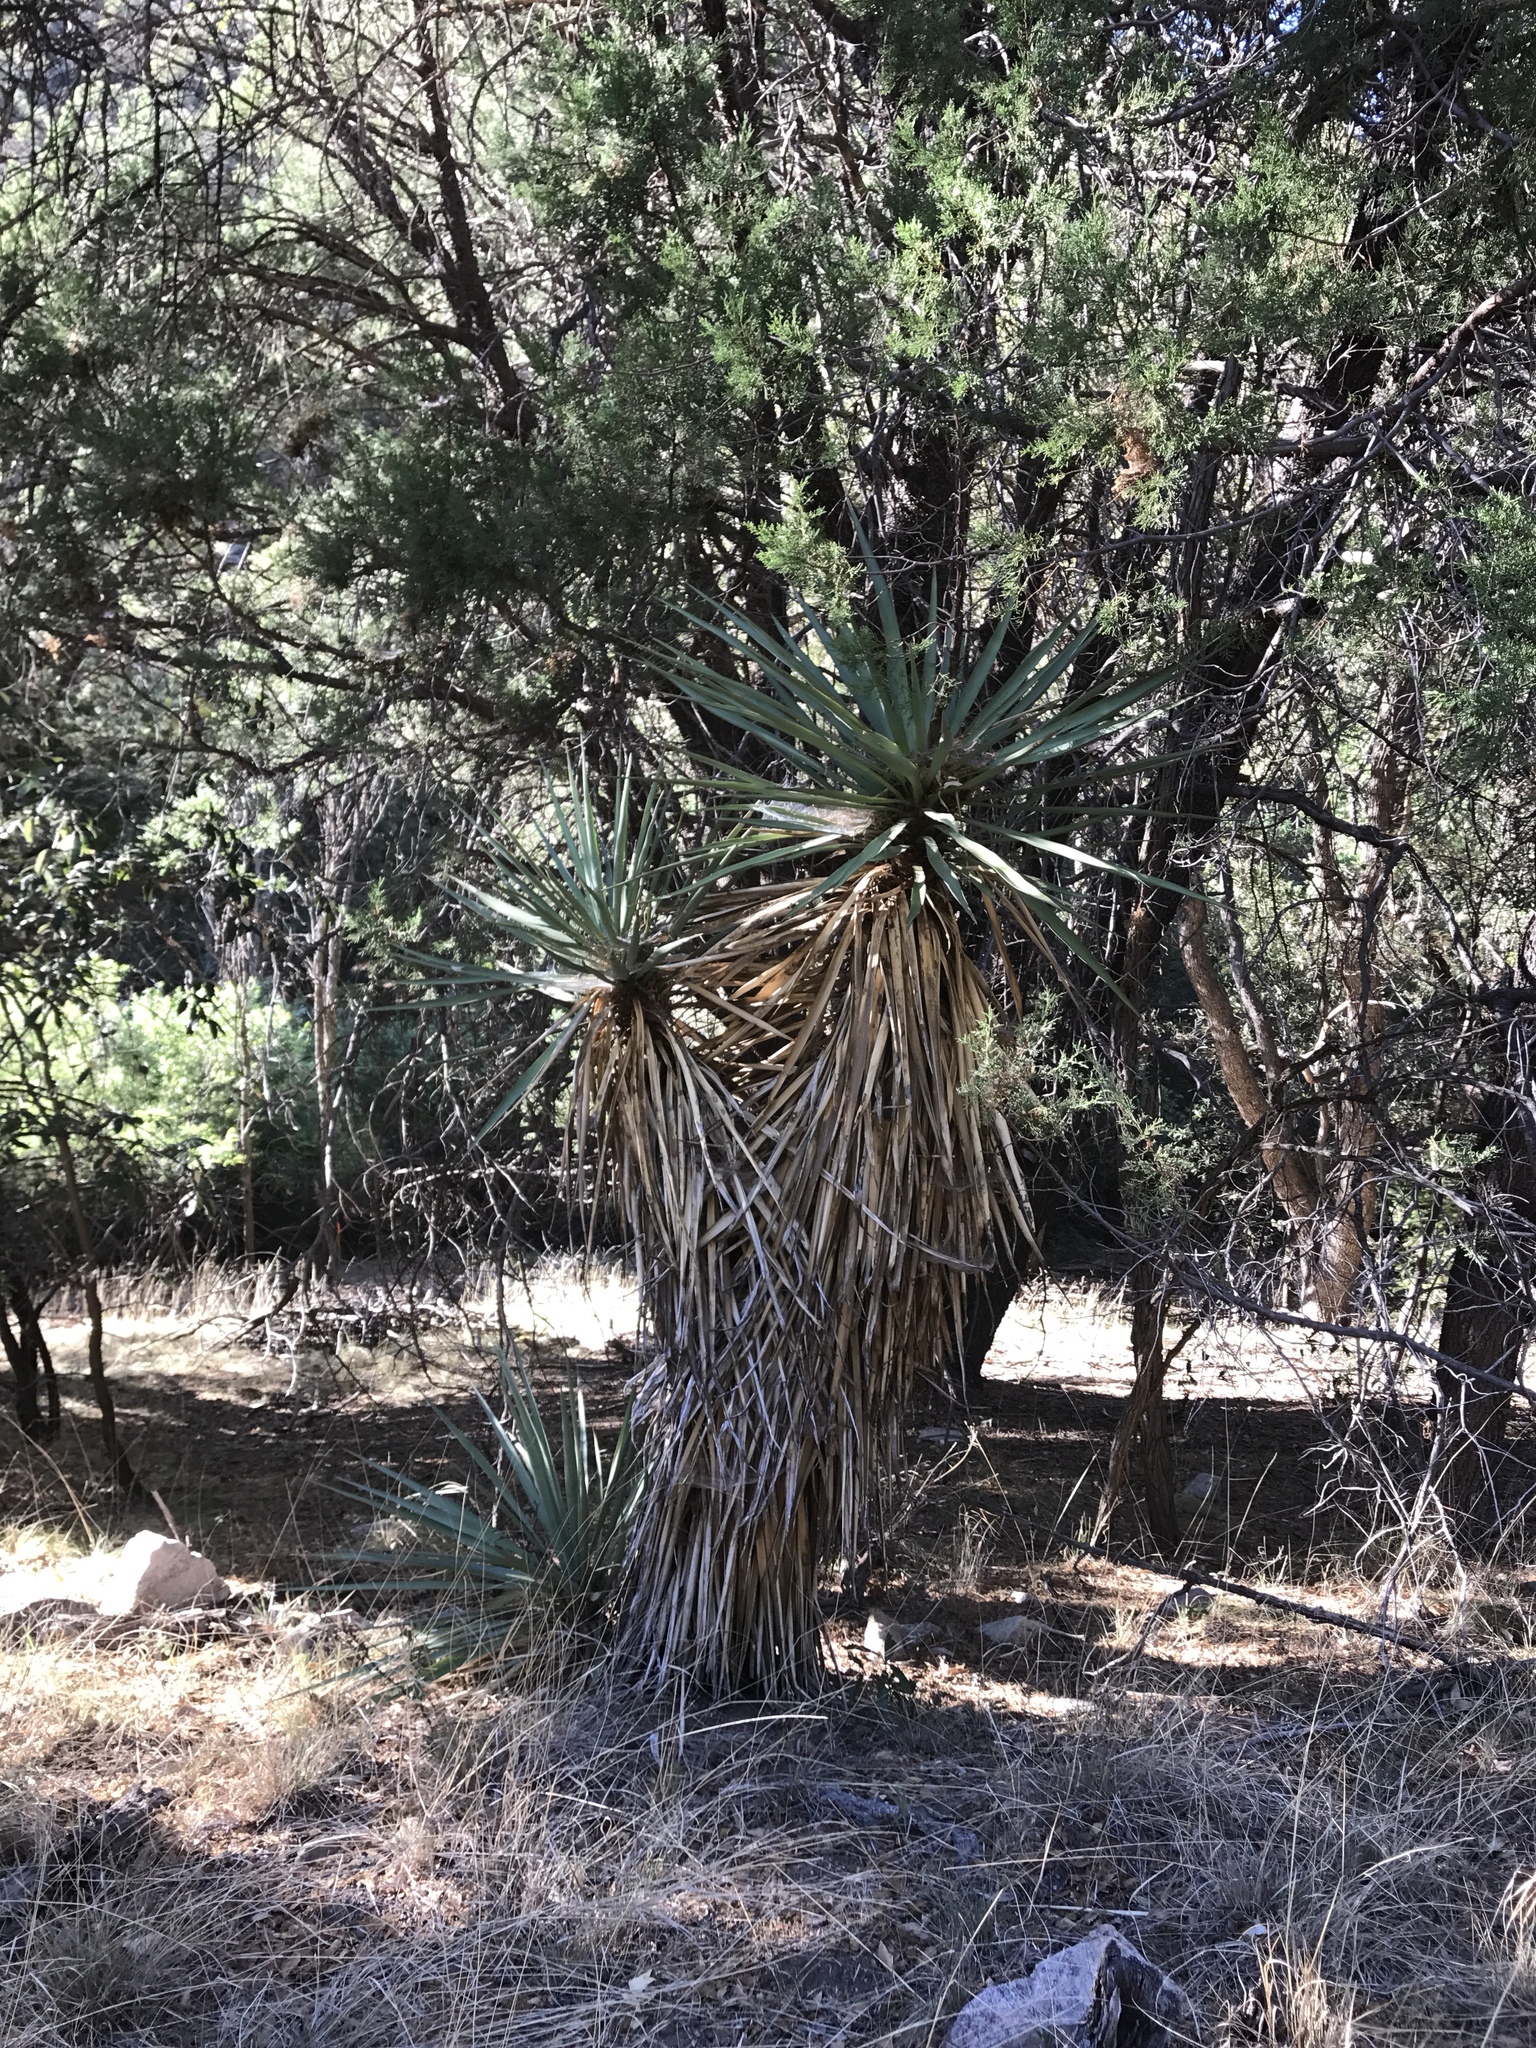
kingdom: Plantae
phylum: Tracheophyta
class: Liliopsida
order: Asparagales
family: Asparagaceae
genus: Yucca
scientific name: Yucca schottii
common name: Hoary yucca
